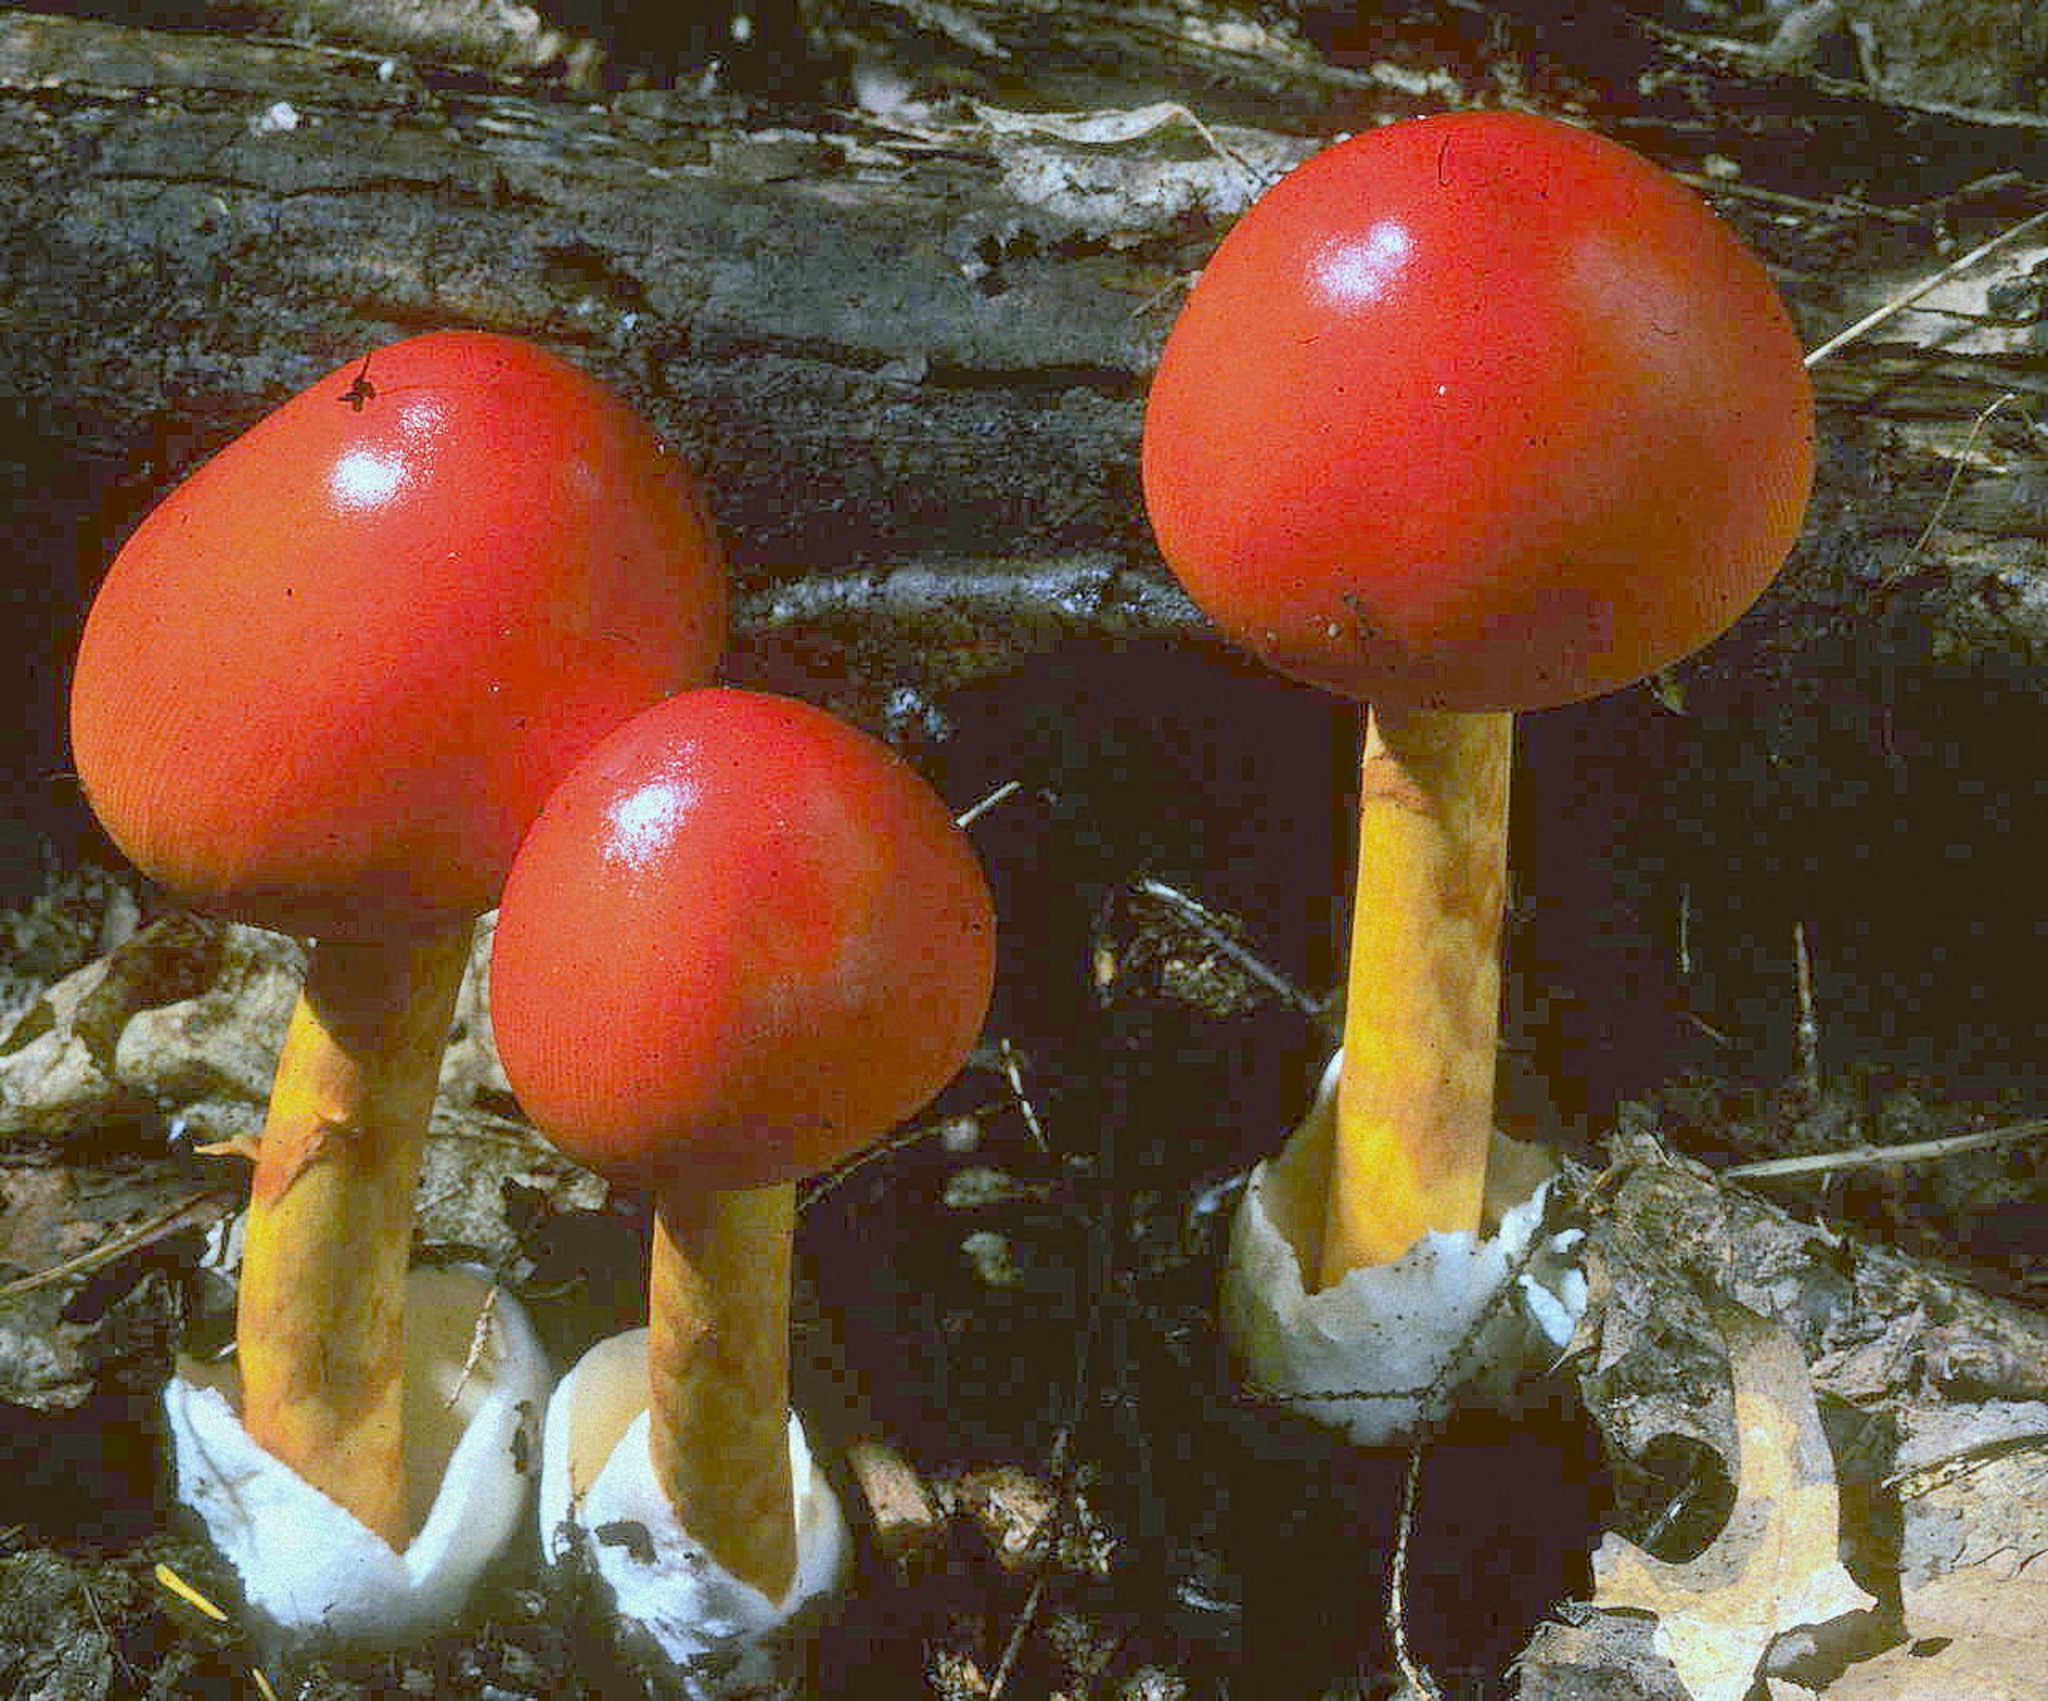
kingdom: Fungi
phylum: Basidiomycota
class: Agaricomycetes
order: Agaricales
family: Amanitaceae
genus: Amanita
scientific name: Amanita jacksonii
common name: Jackson's slender caesar
